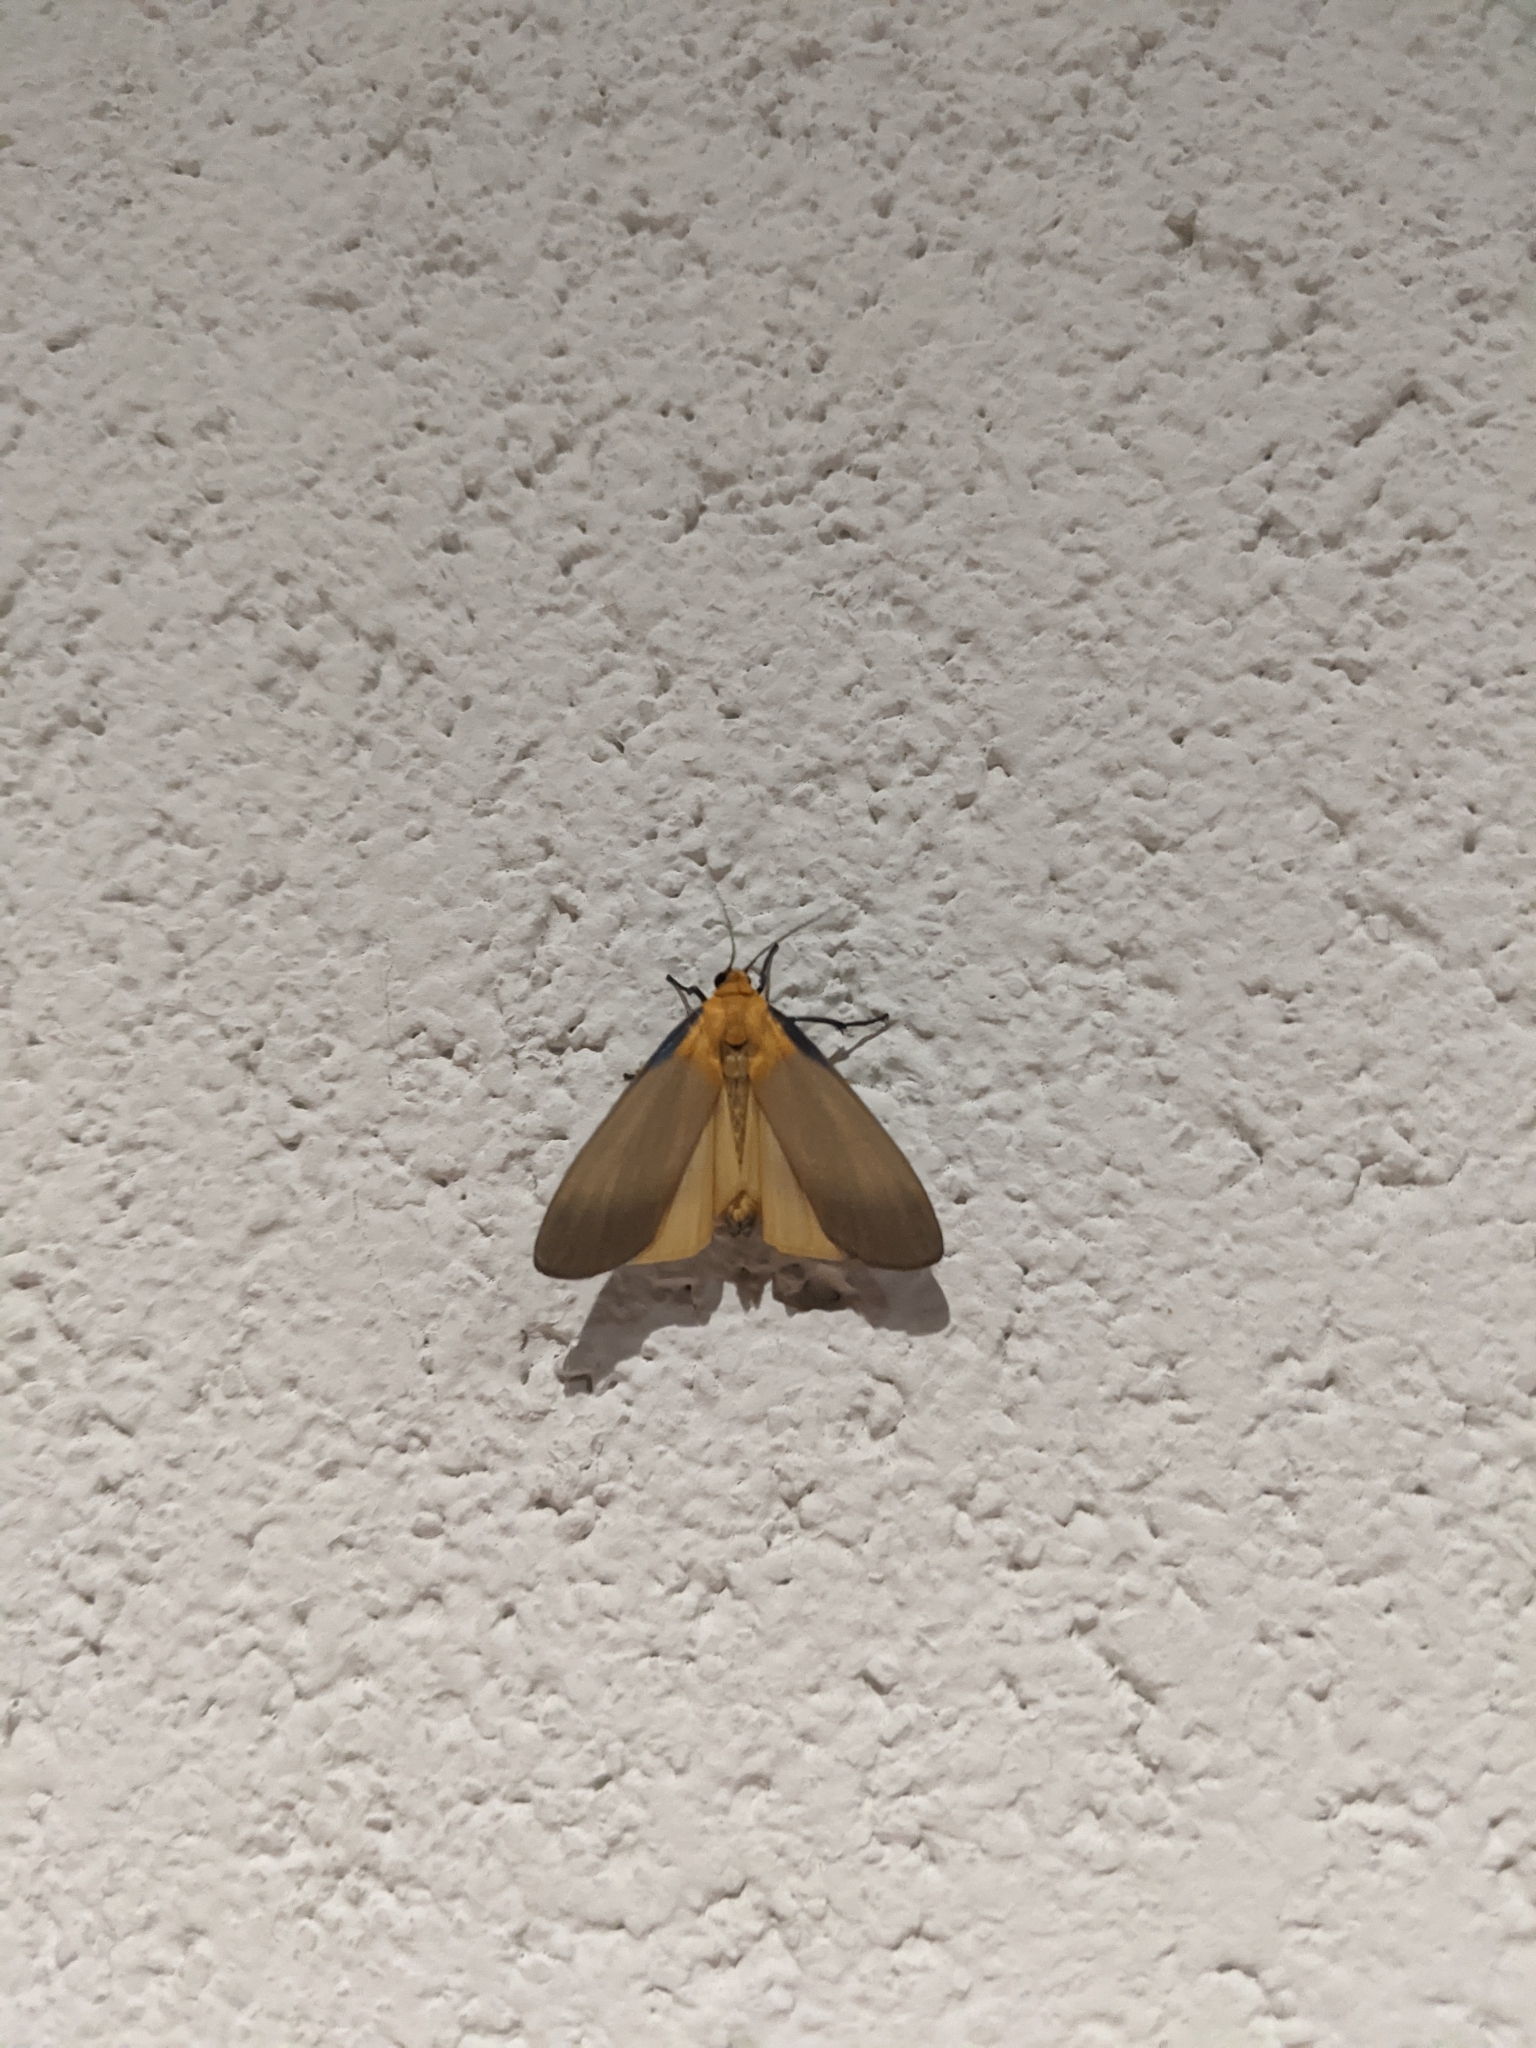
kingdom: Animalia
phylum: Arthropoda
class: Insecta
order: Lepidoptera
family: Erebidae
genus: Lithosia
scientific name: Lithosia quadra
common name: Four-spotted footman
